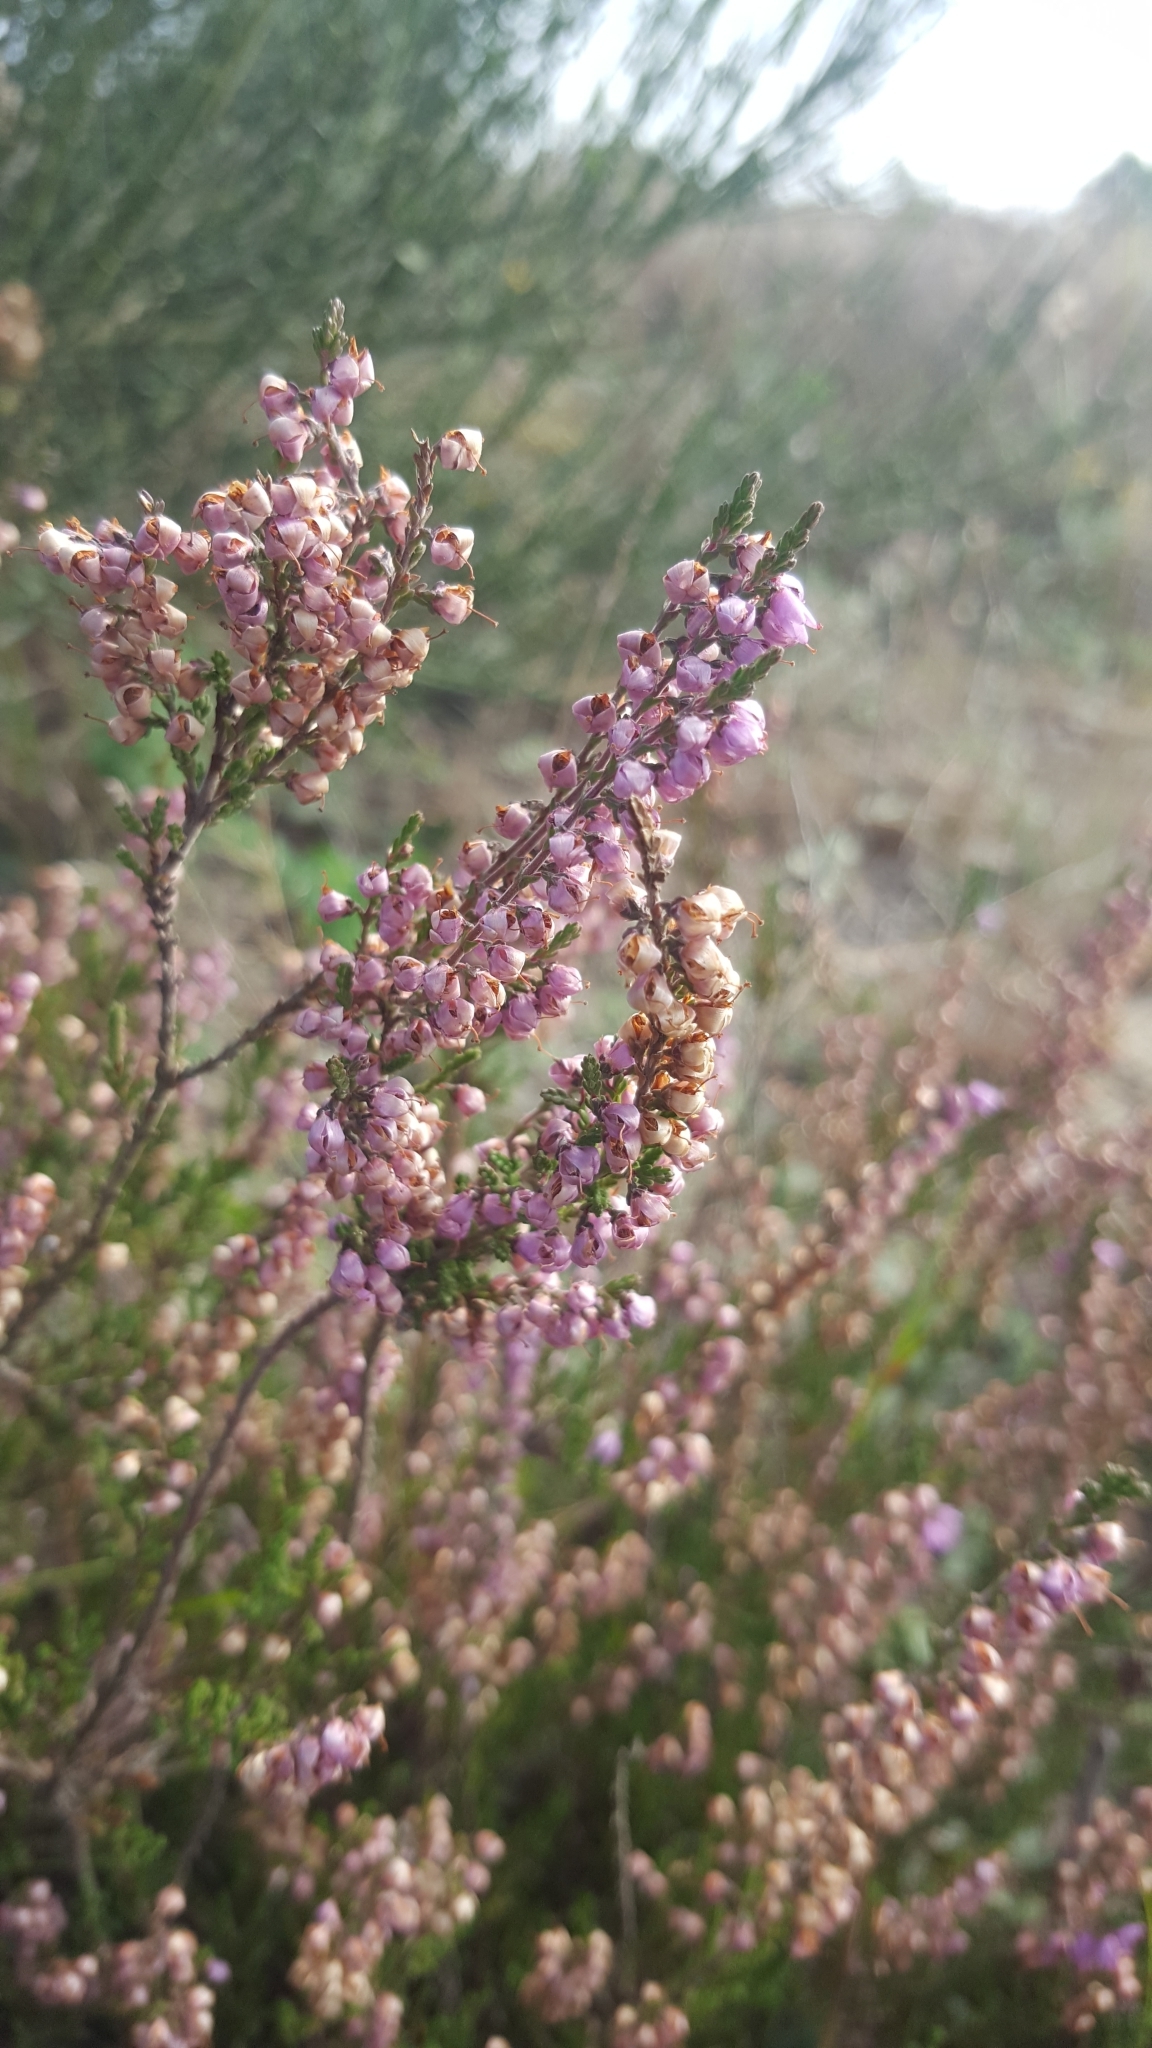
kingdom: Plantae
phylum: Tracheophyta
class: Magnoliopsida
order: Ericales
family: Ericaceae
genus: Calluna
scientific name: Calluna vulgaris
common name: Heather
